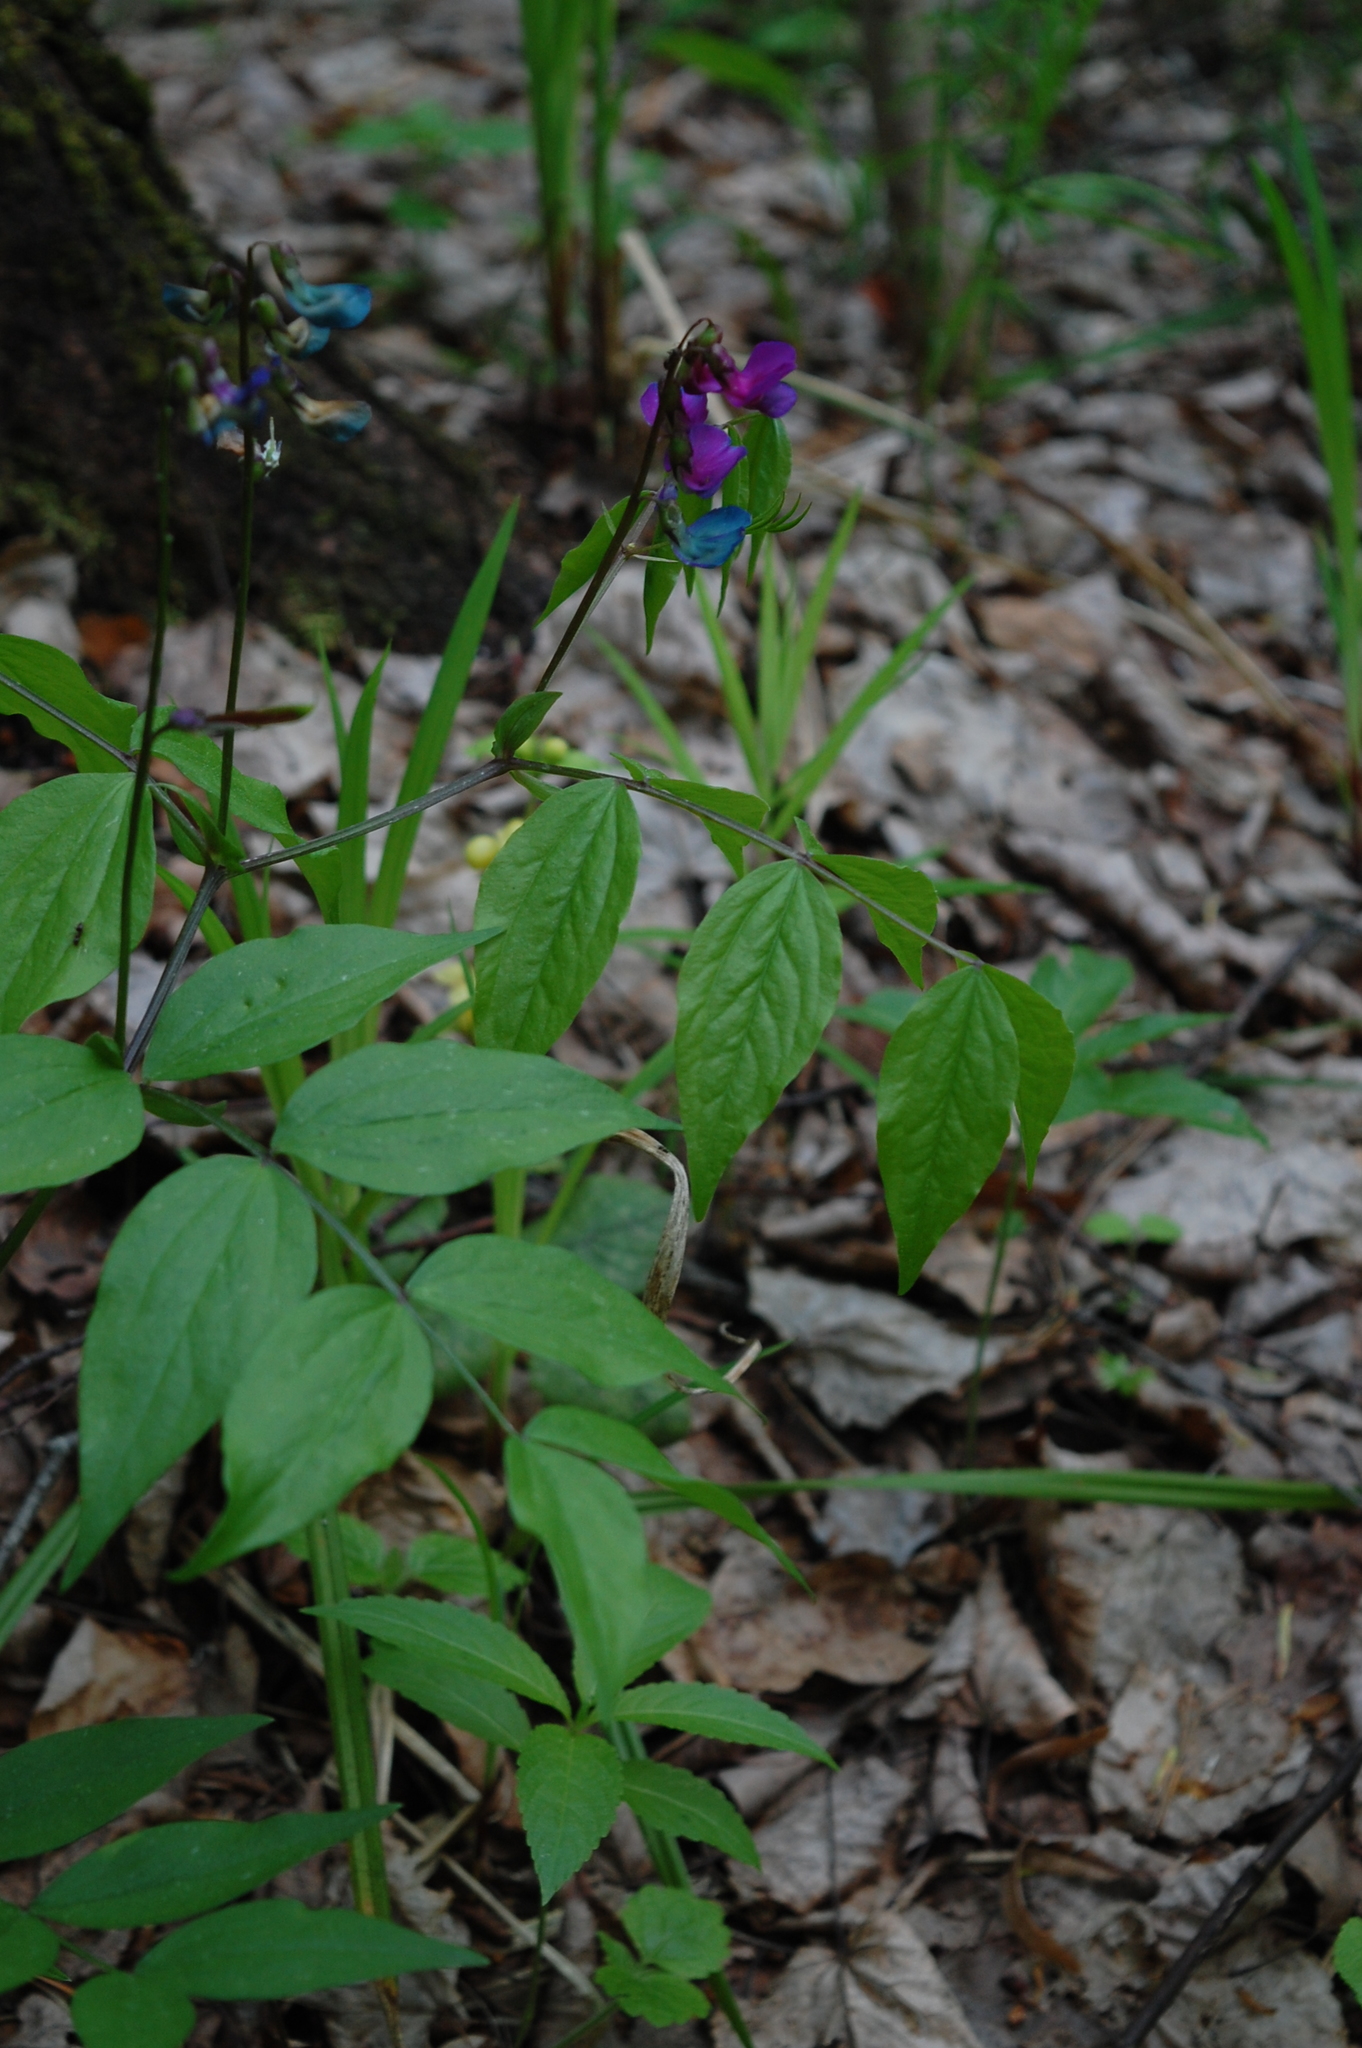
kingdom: Plantae
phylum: Tracheophyta
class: Magnoliopsida
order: Fabales
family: Fabaceae
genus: Lathyrus
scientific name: Lathyrus vernus
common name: Spring pea
